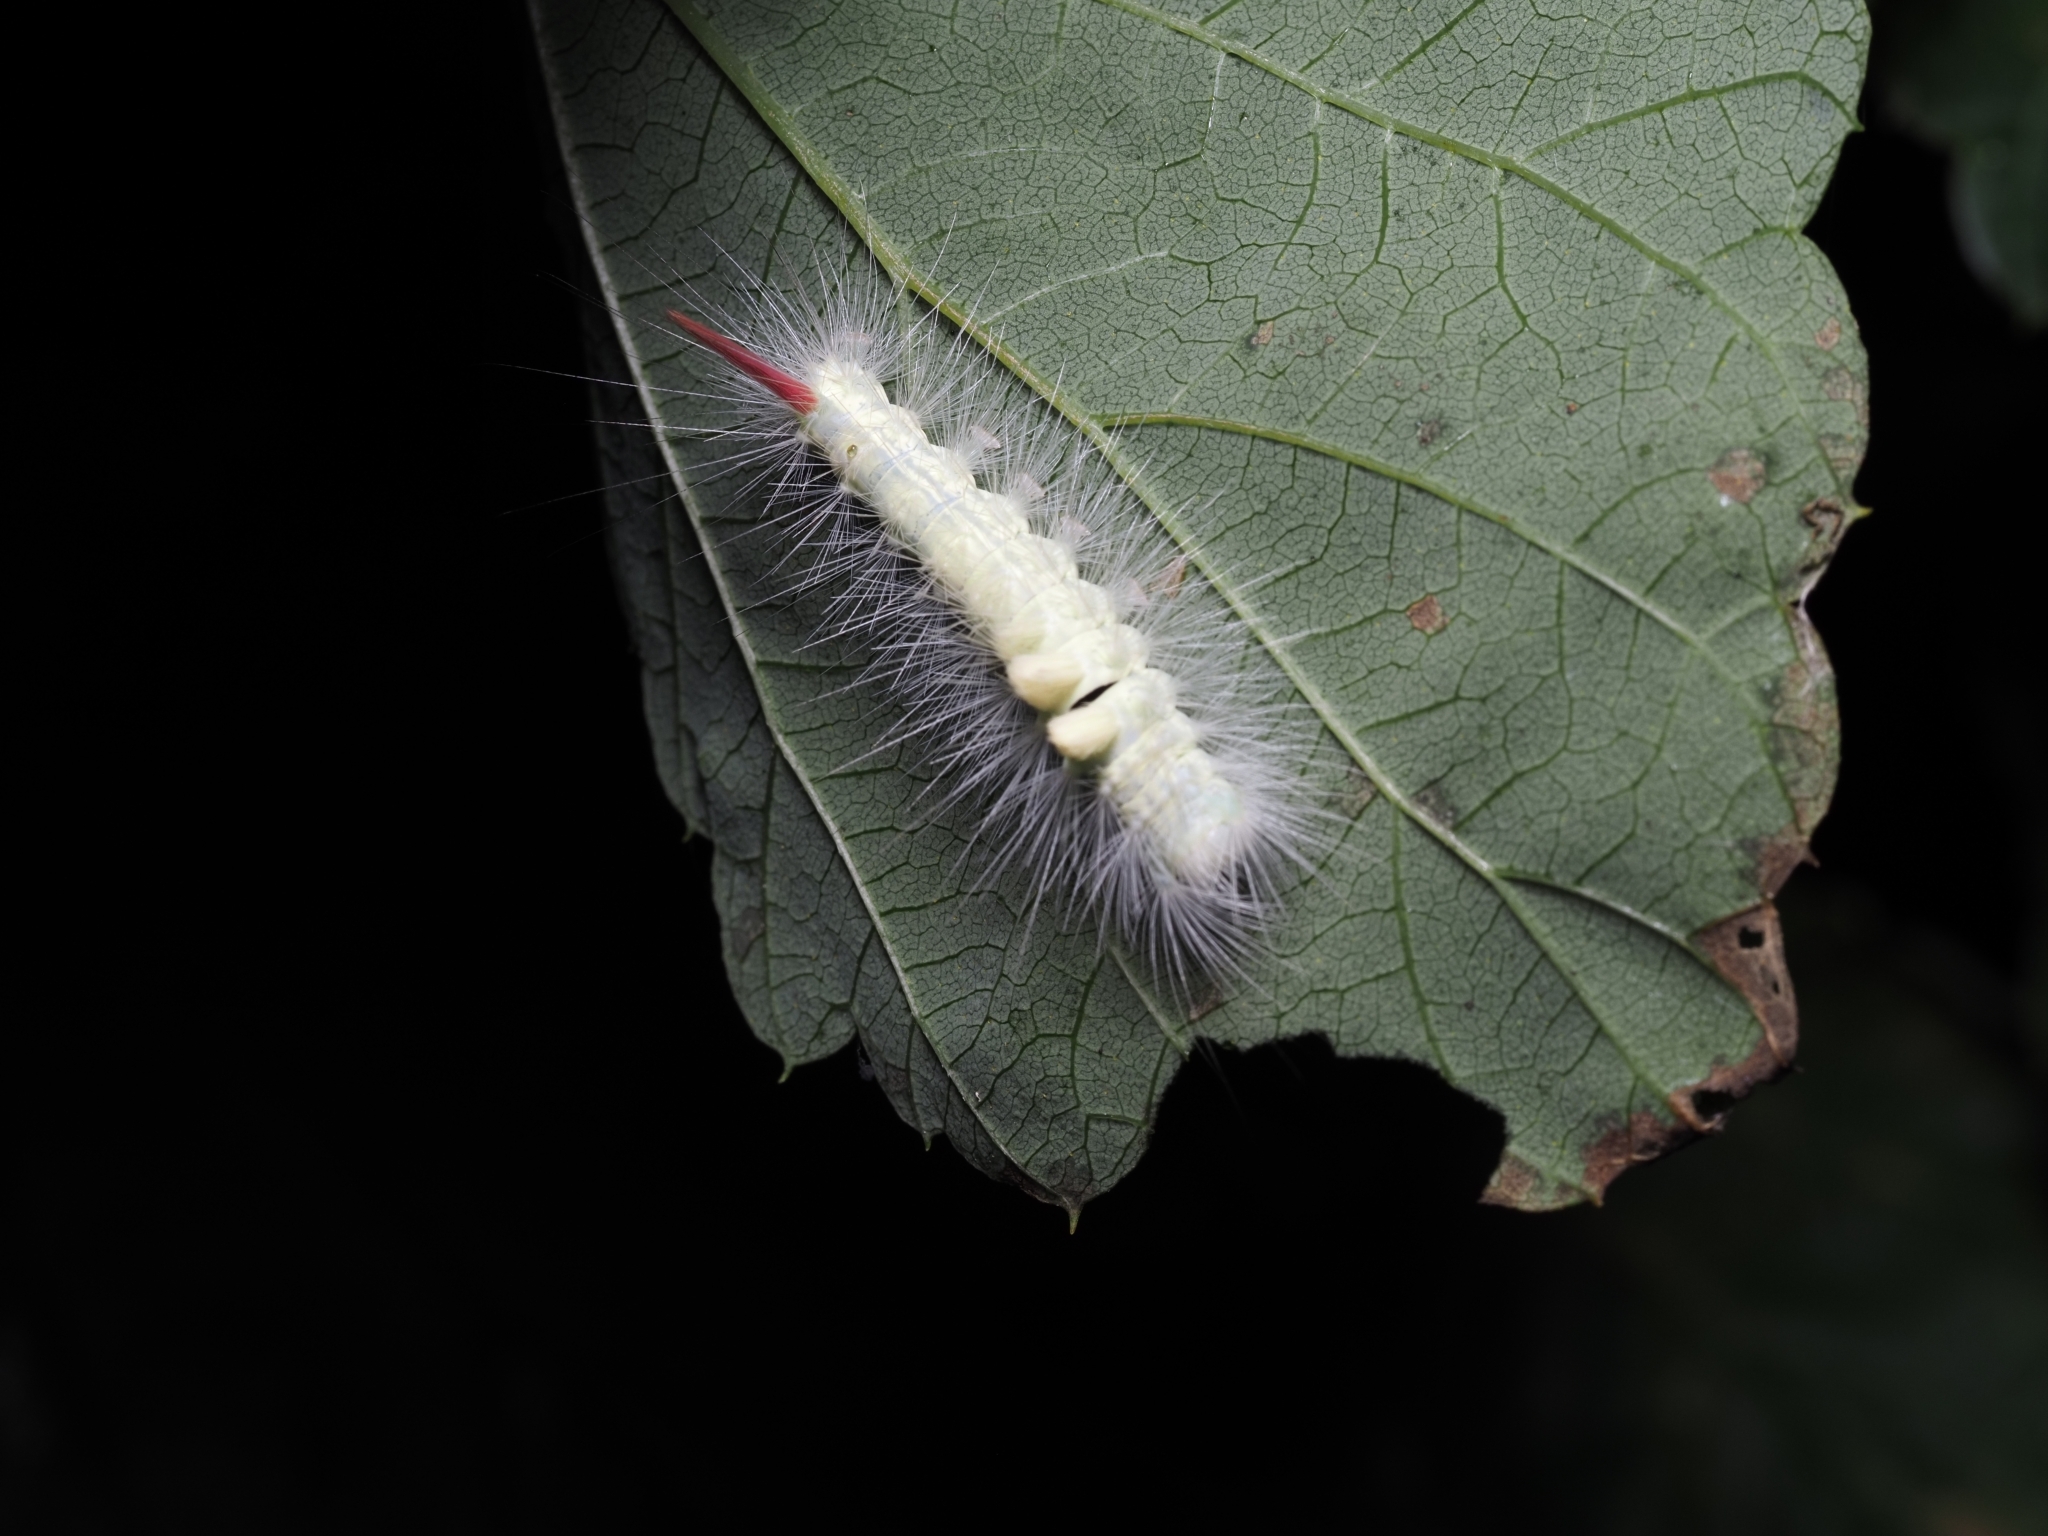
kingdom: Animalia
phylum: Arthropoda
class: Insecta
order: Lepidoptera
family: Erebidae
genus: Calliteara
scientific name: Calliteara pudibunda
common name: Pale tussock
